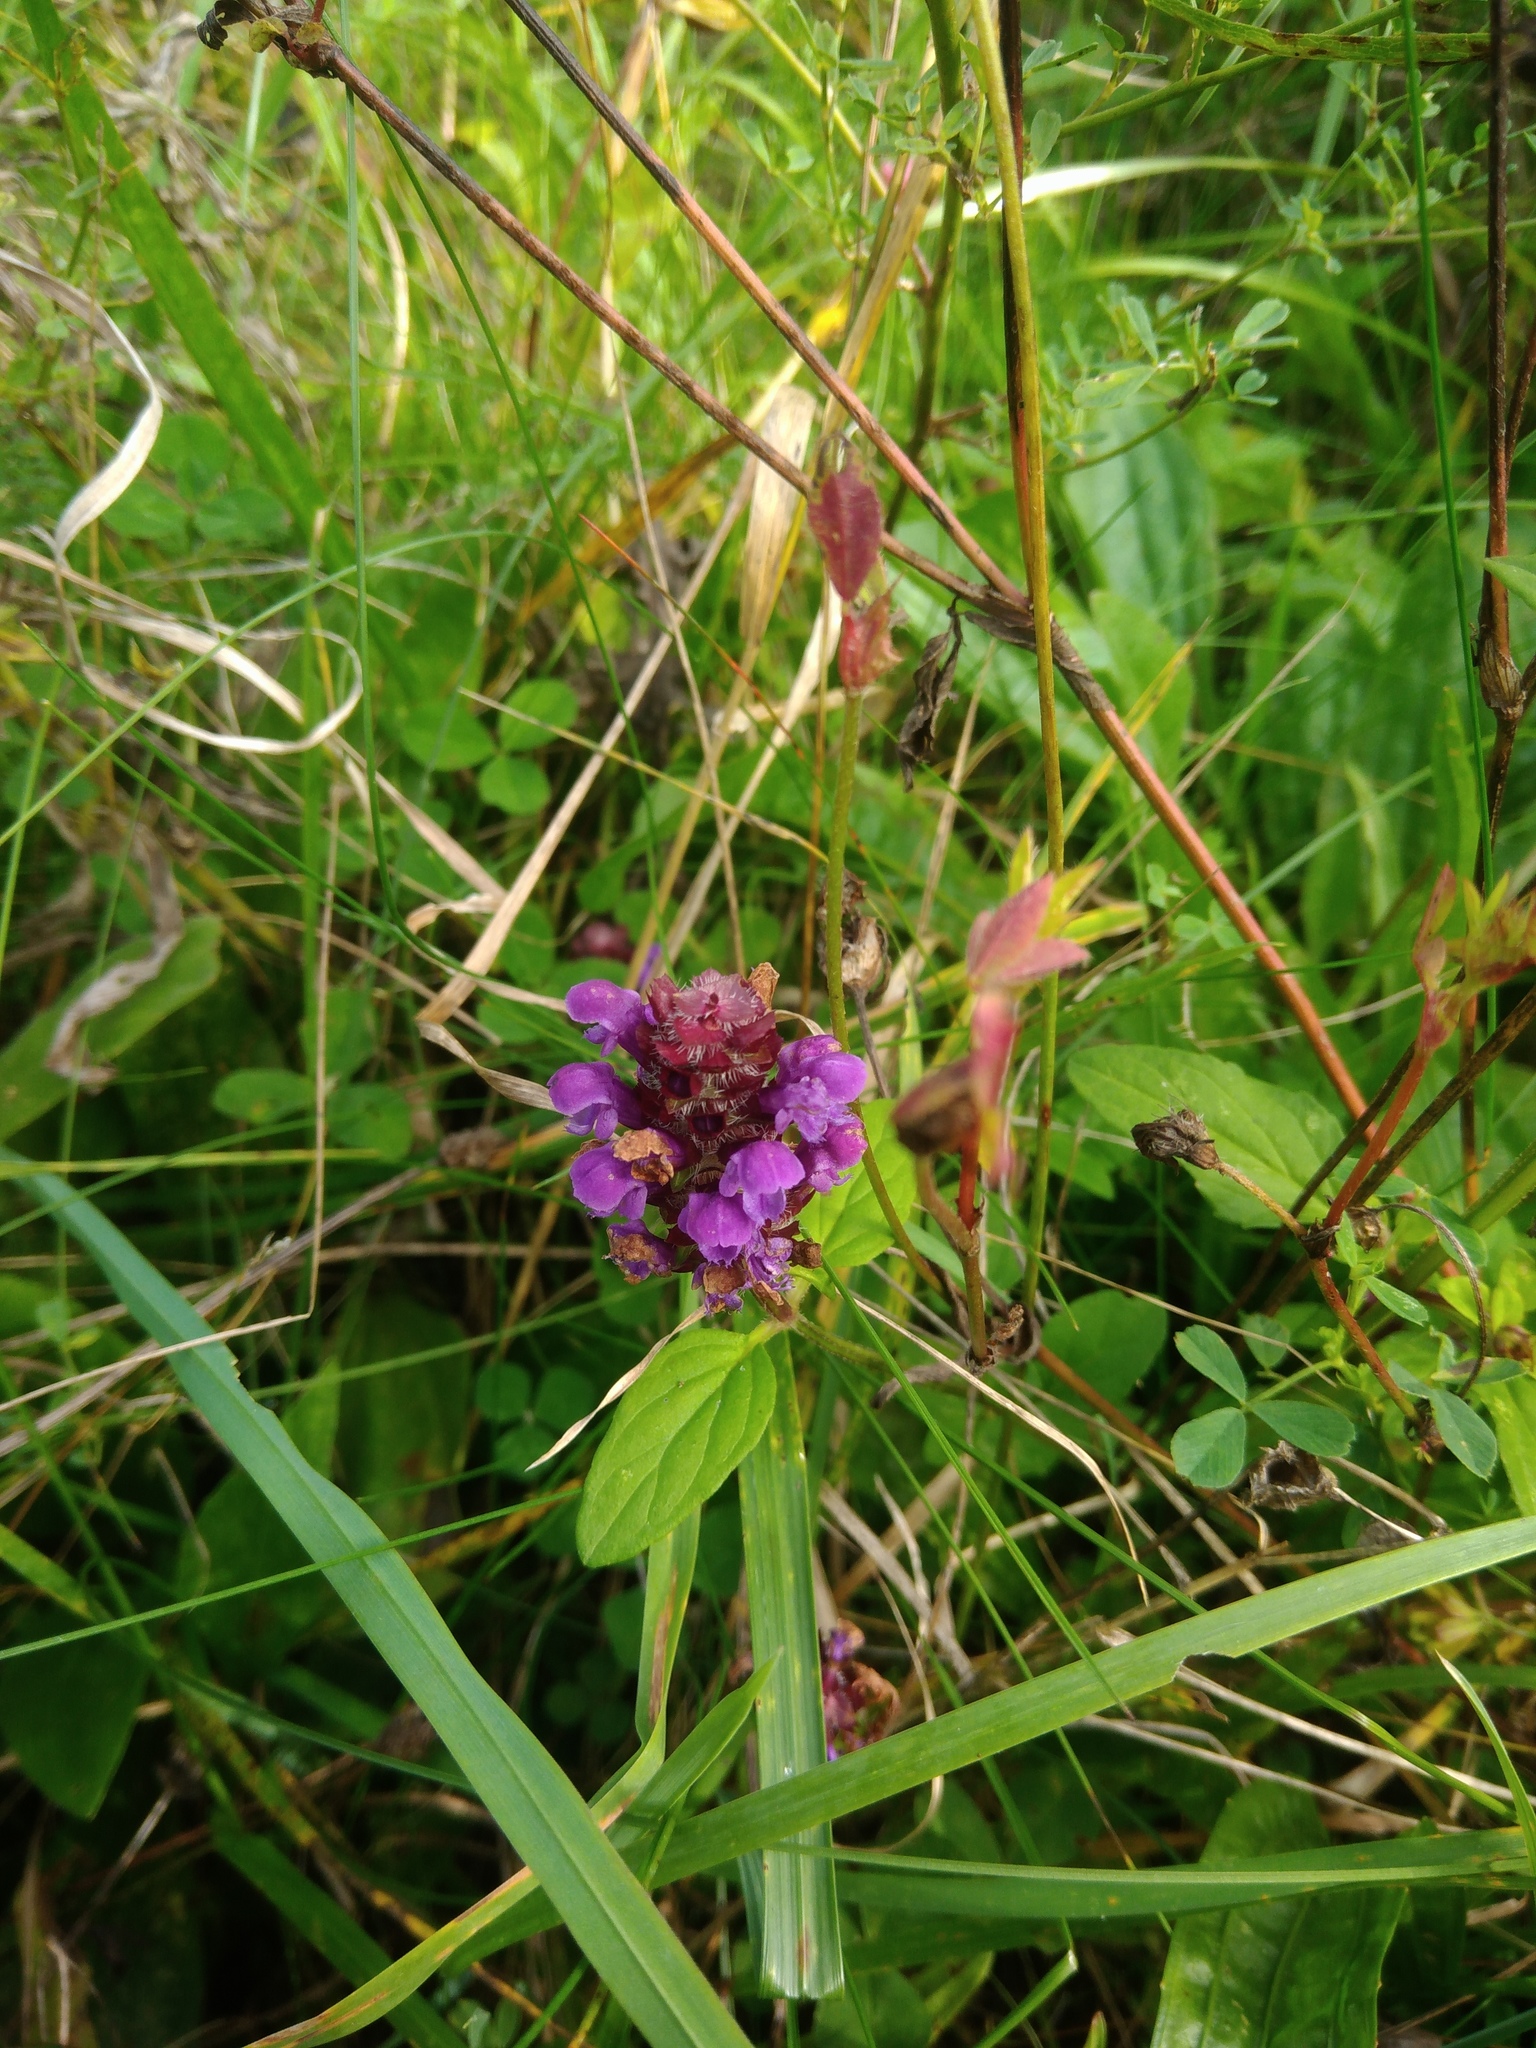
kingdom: Plantae
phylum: Tracheophyta
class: Magnoliopsida
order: Lamiales
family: Lamiaceae
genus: Prunella
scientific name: Prunella vulgaris
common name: Heal-all
